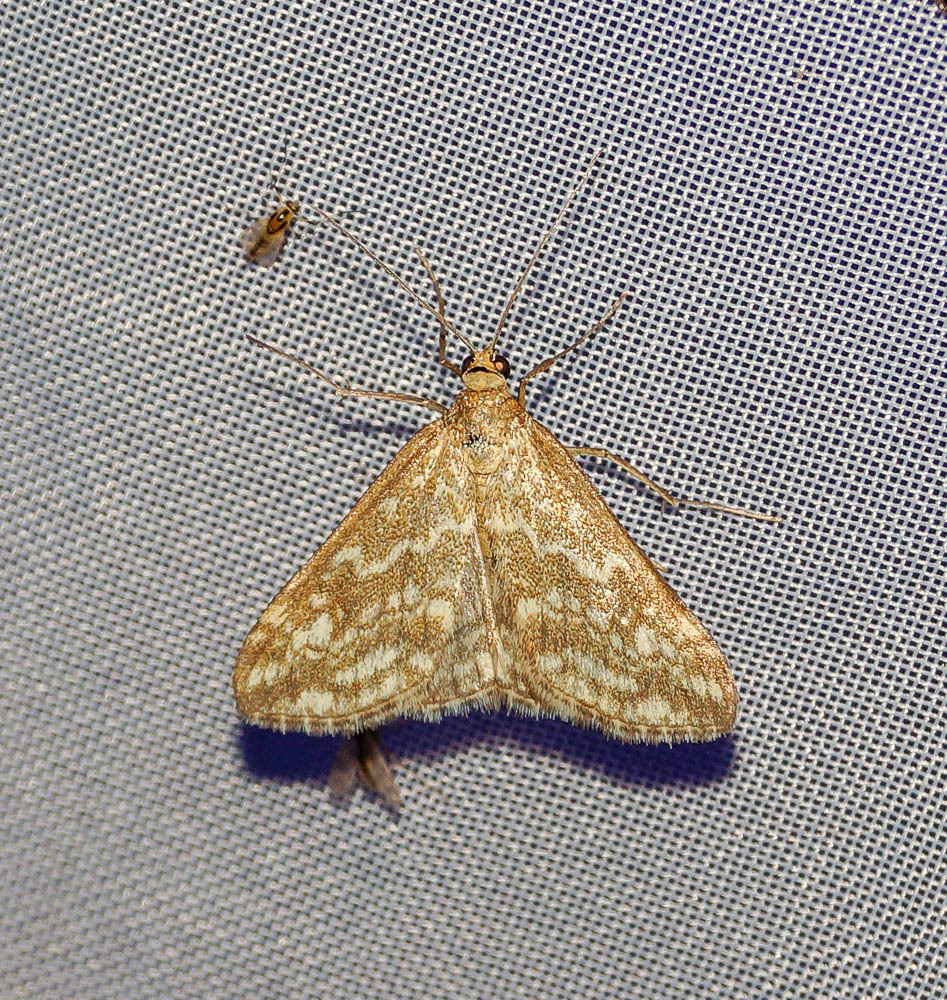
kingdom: Animalia
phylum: Arthropoda
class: Insecta
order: Lepidoptera
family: Crambidae
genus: Evergestis
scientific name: Evergestis frumentalis
